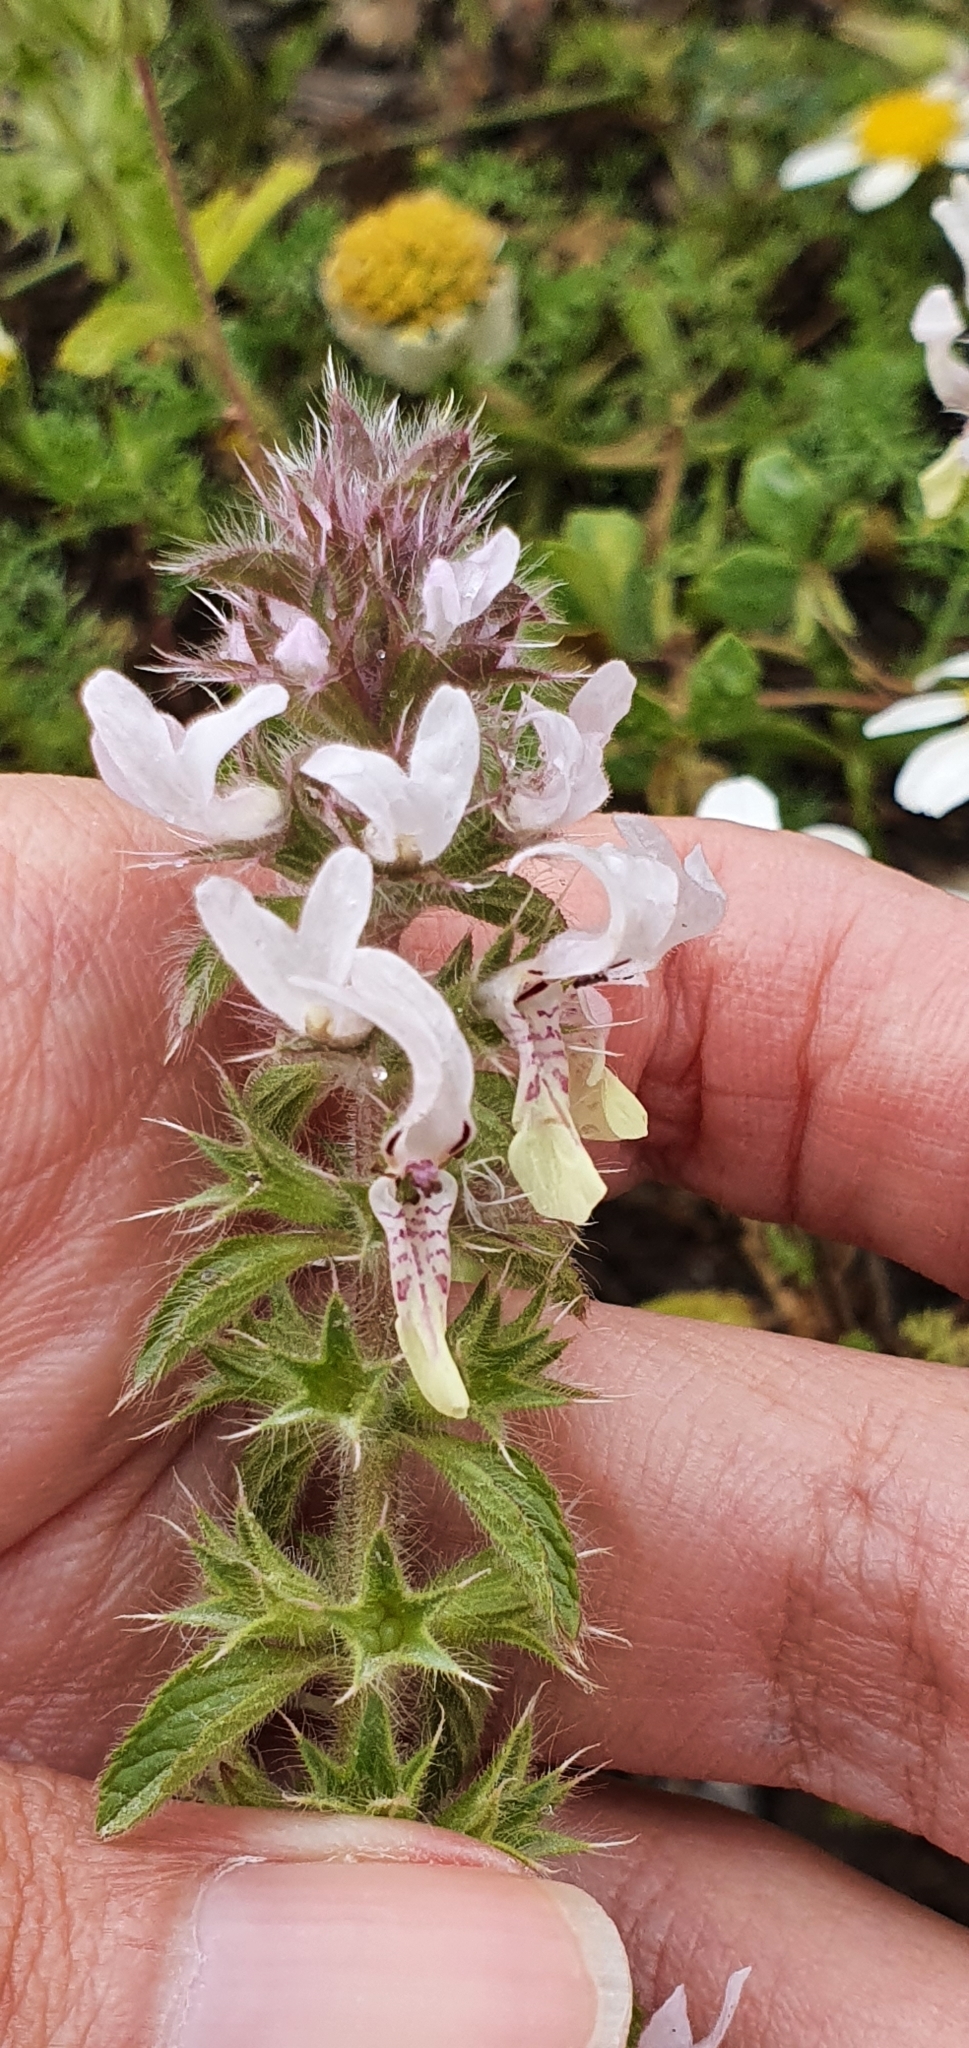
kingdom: Plantae
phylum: Tracheophyta
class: Magnoliopsida
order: Lamiales
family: Lamiaceae
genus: Stachys
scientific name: Stachys ocymastrum
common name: Italian hedgenettle
